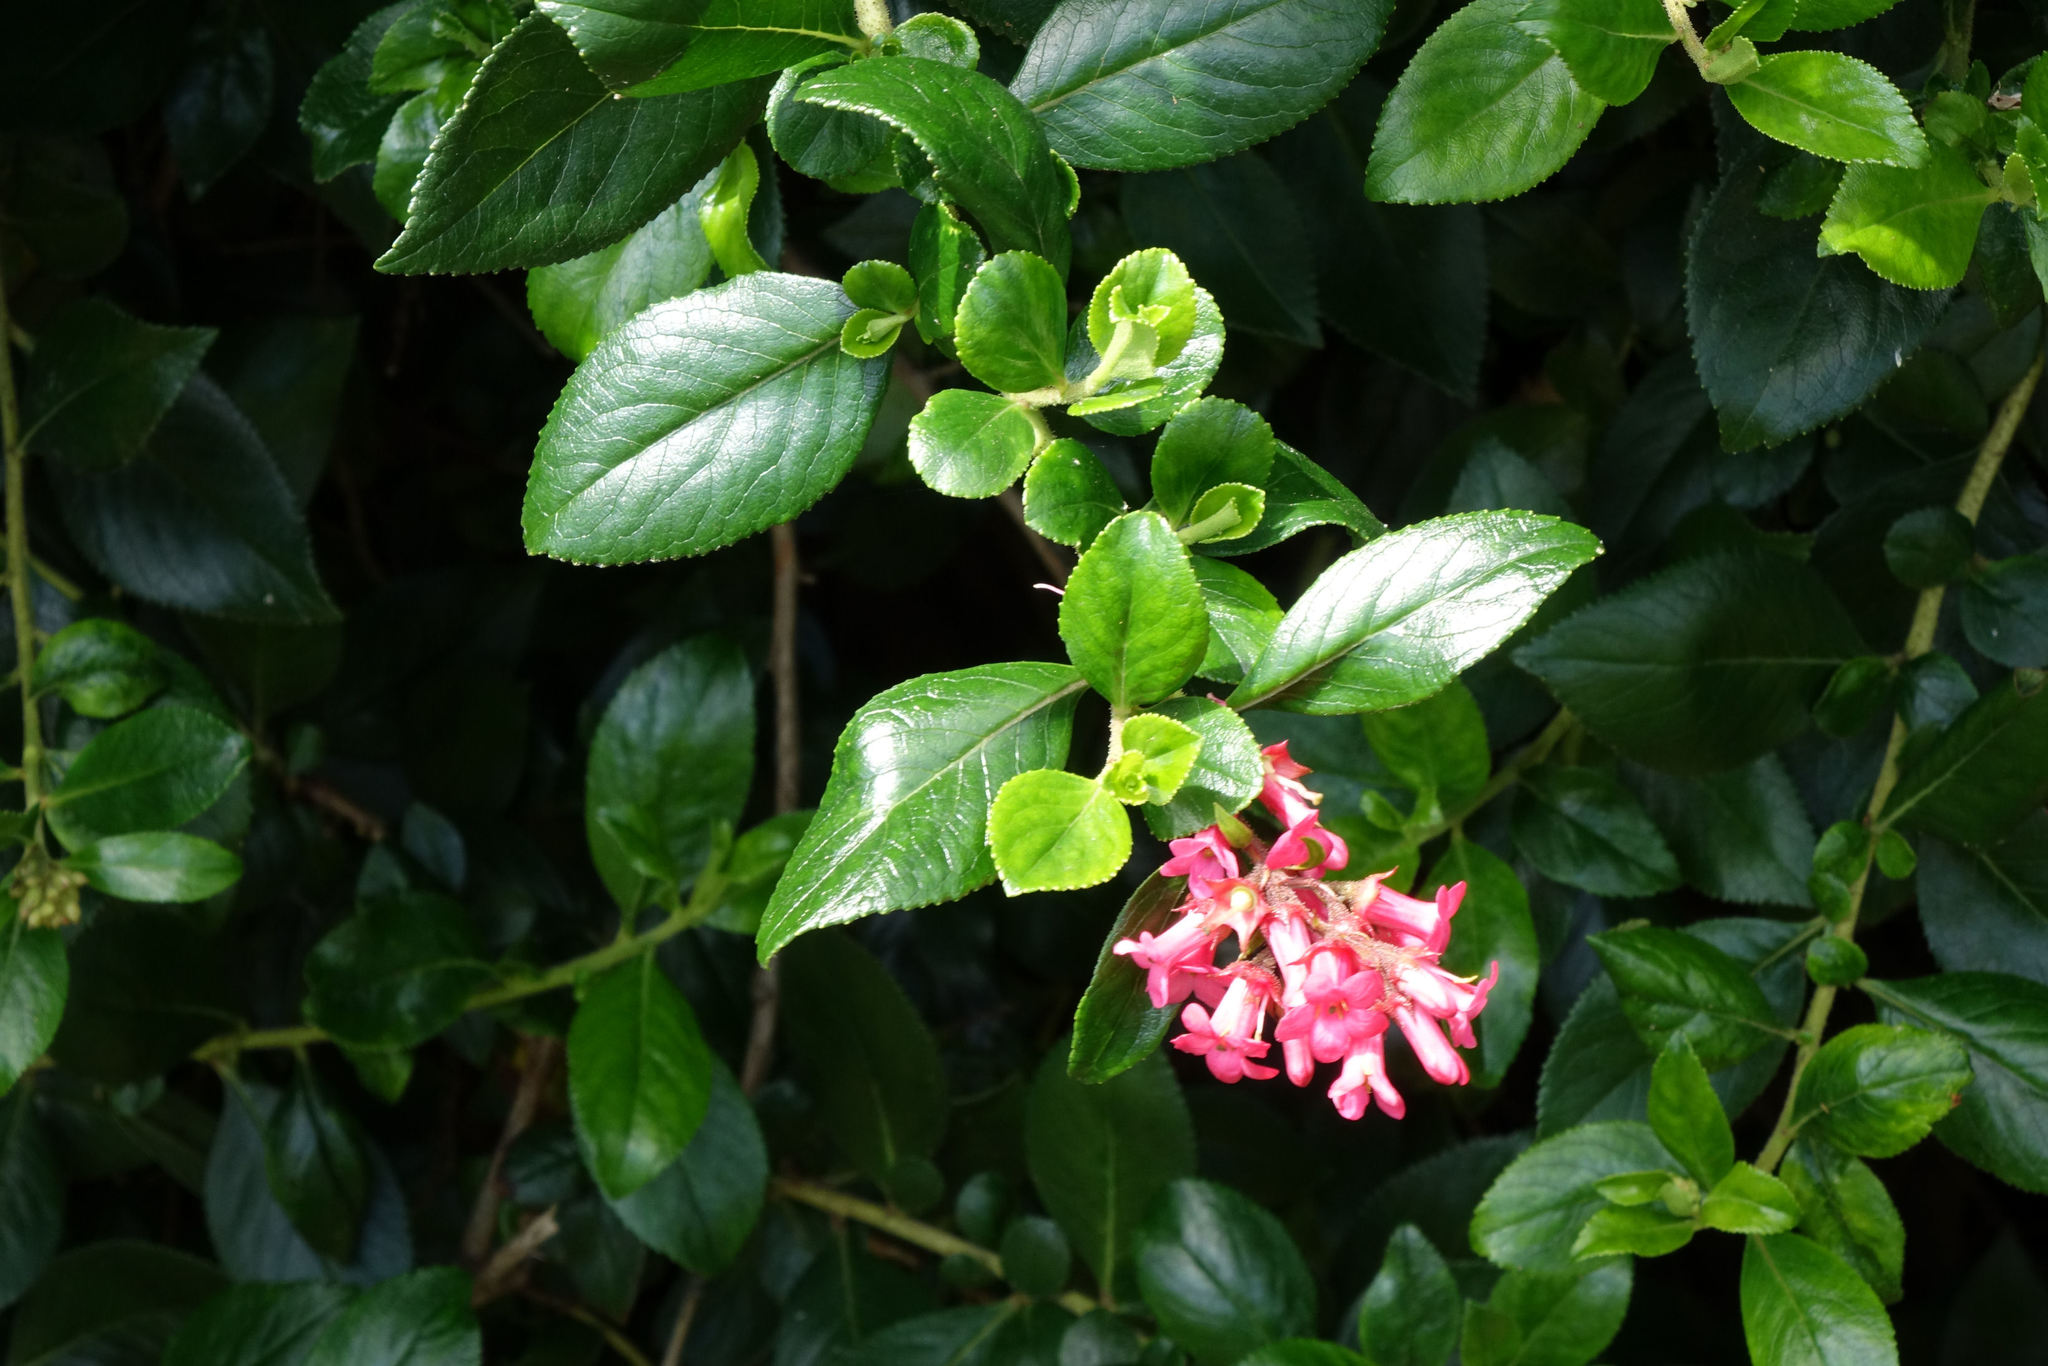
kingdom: Plantae
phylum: Tracheophyta
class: Magnoliopsida
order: Escalloniales
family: Escalloniaceae
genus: Escallonia
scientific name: Escallonia rubra
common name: Redclaws
